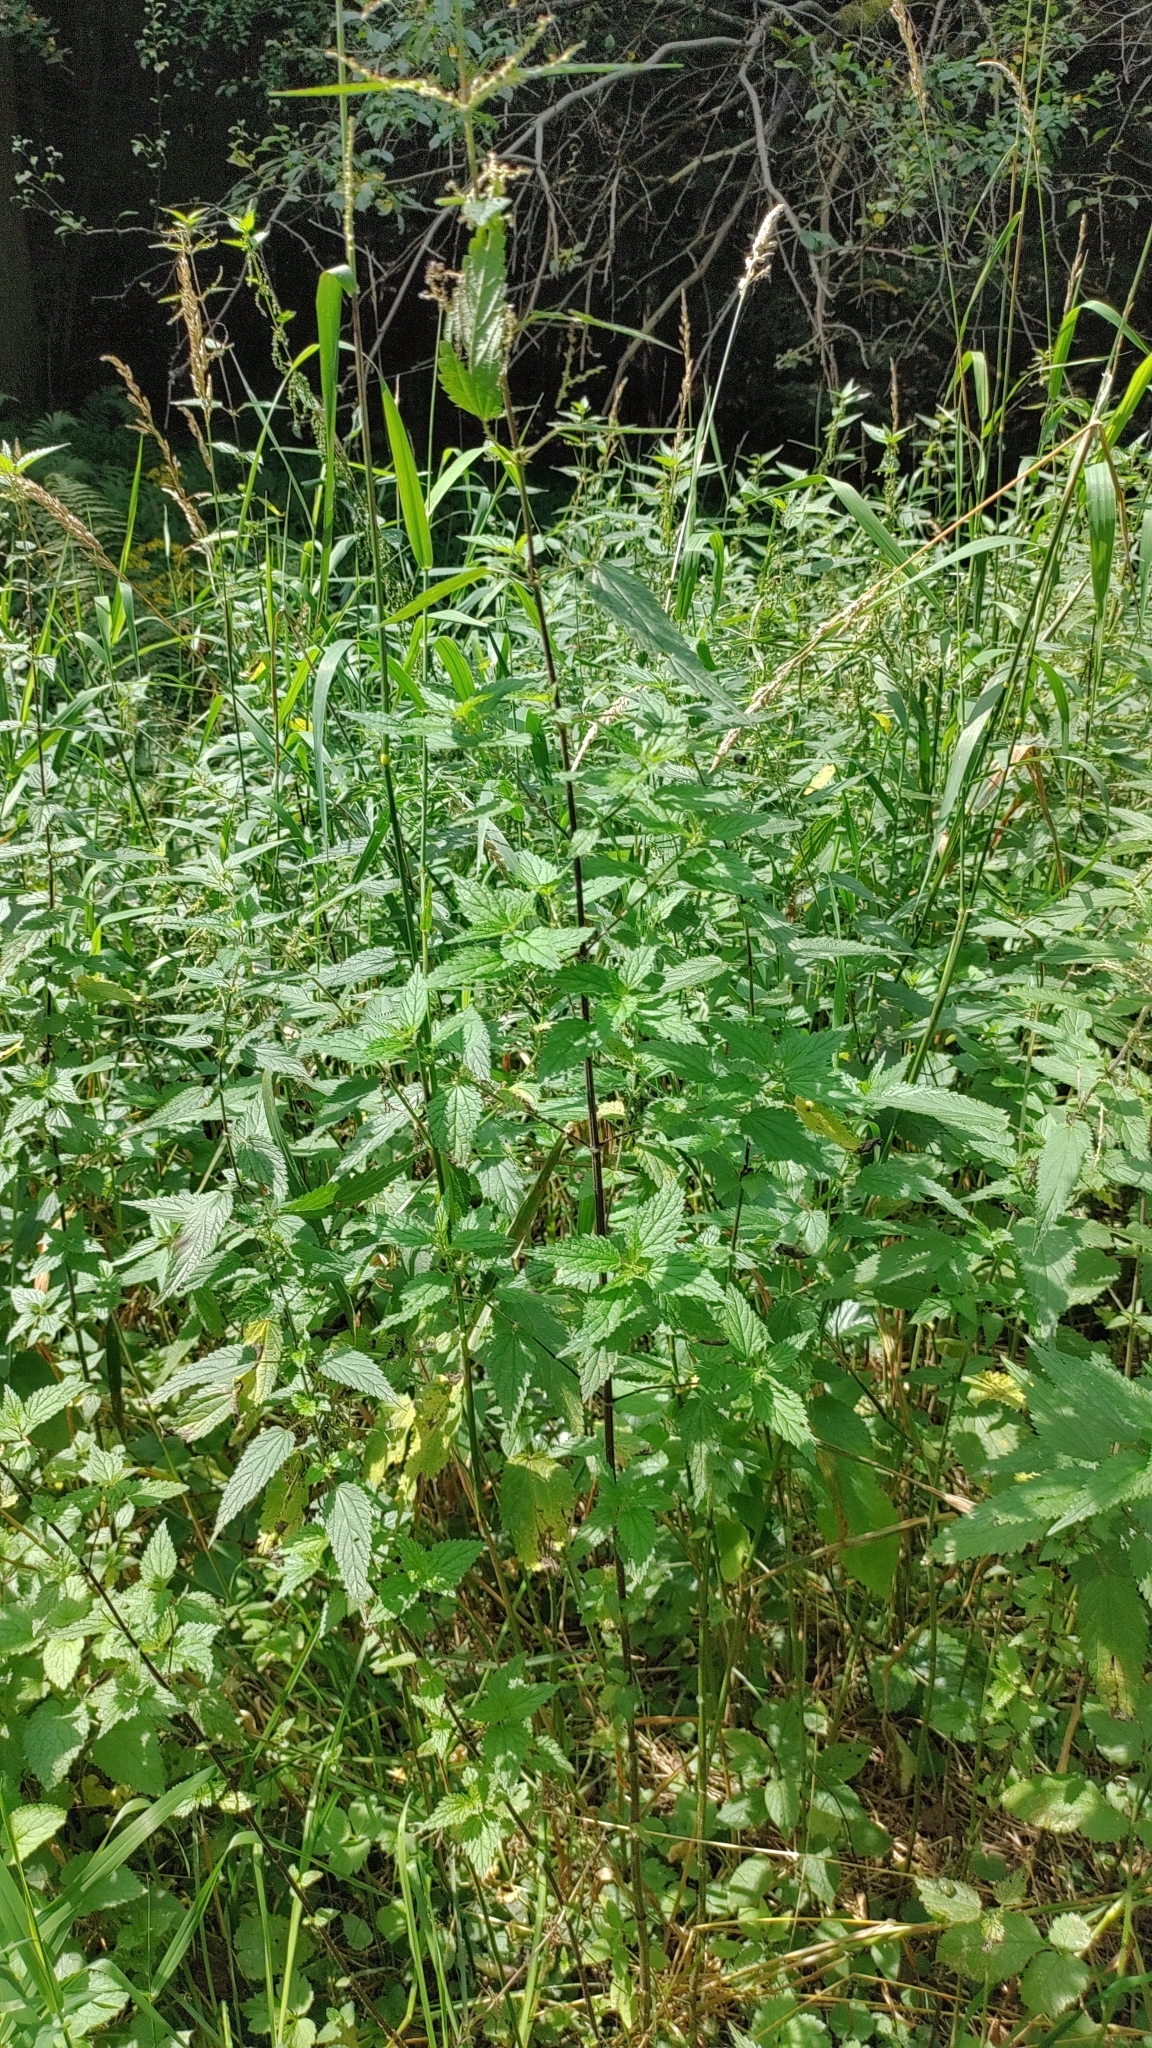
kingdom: Plantae
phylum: Tracheophyta
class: Magnoliopsida
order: Rosales
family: Urticaceae
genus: Urtica
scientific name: Urtica dioica
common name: Common nettle
